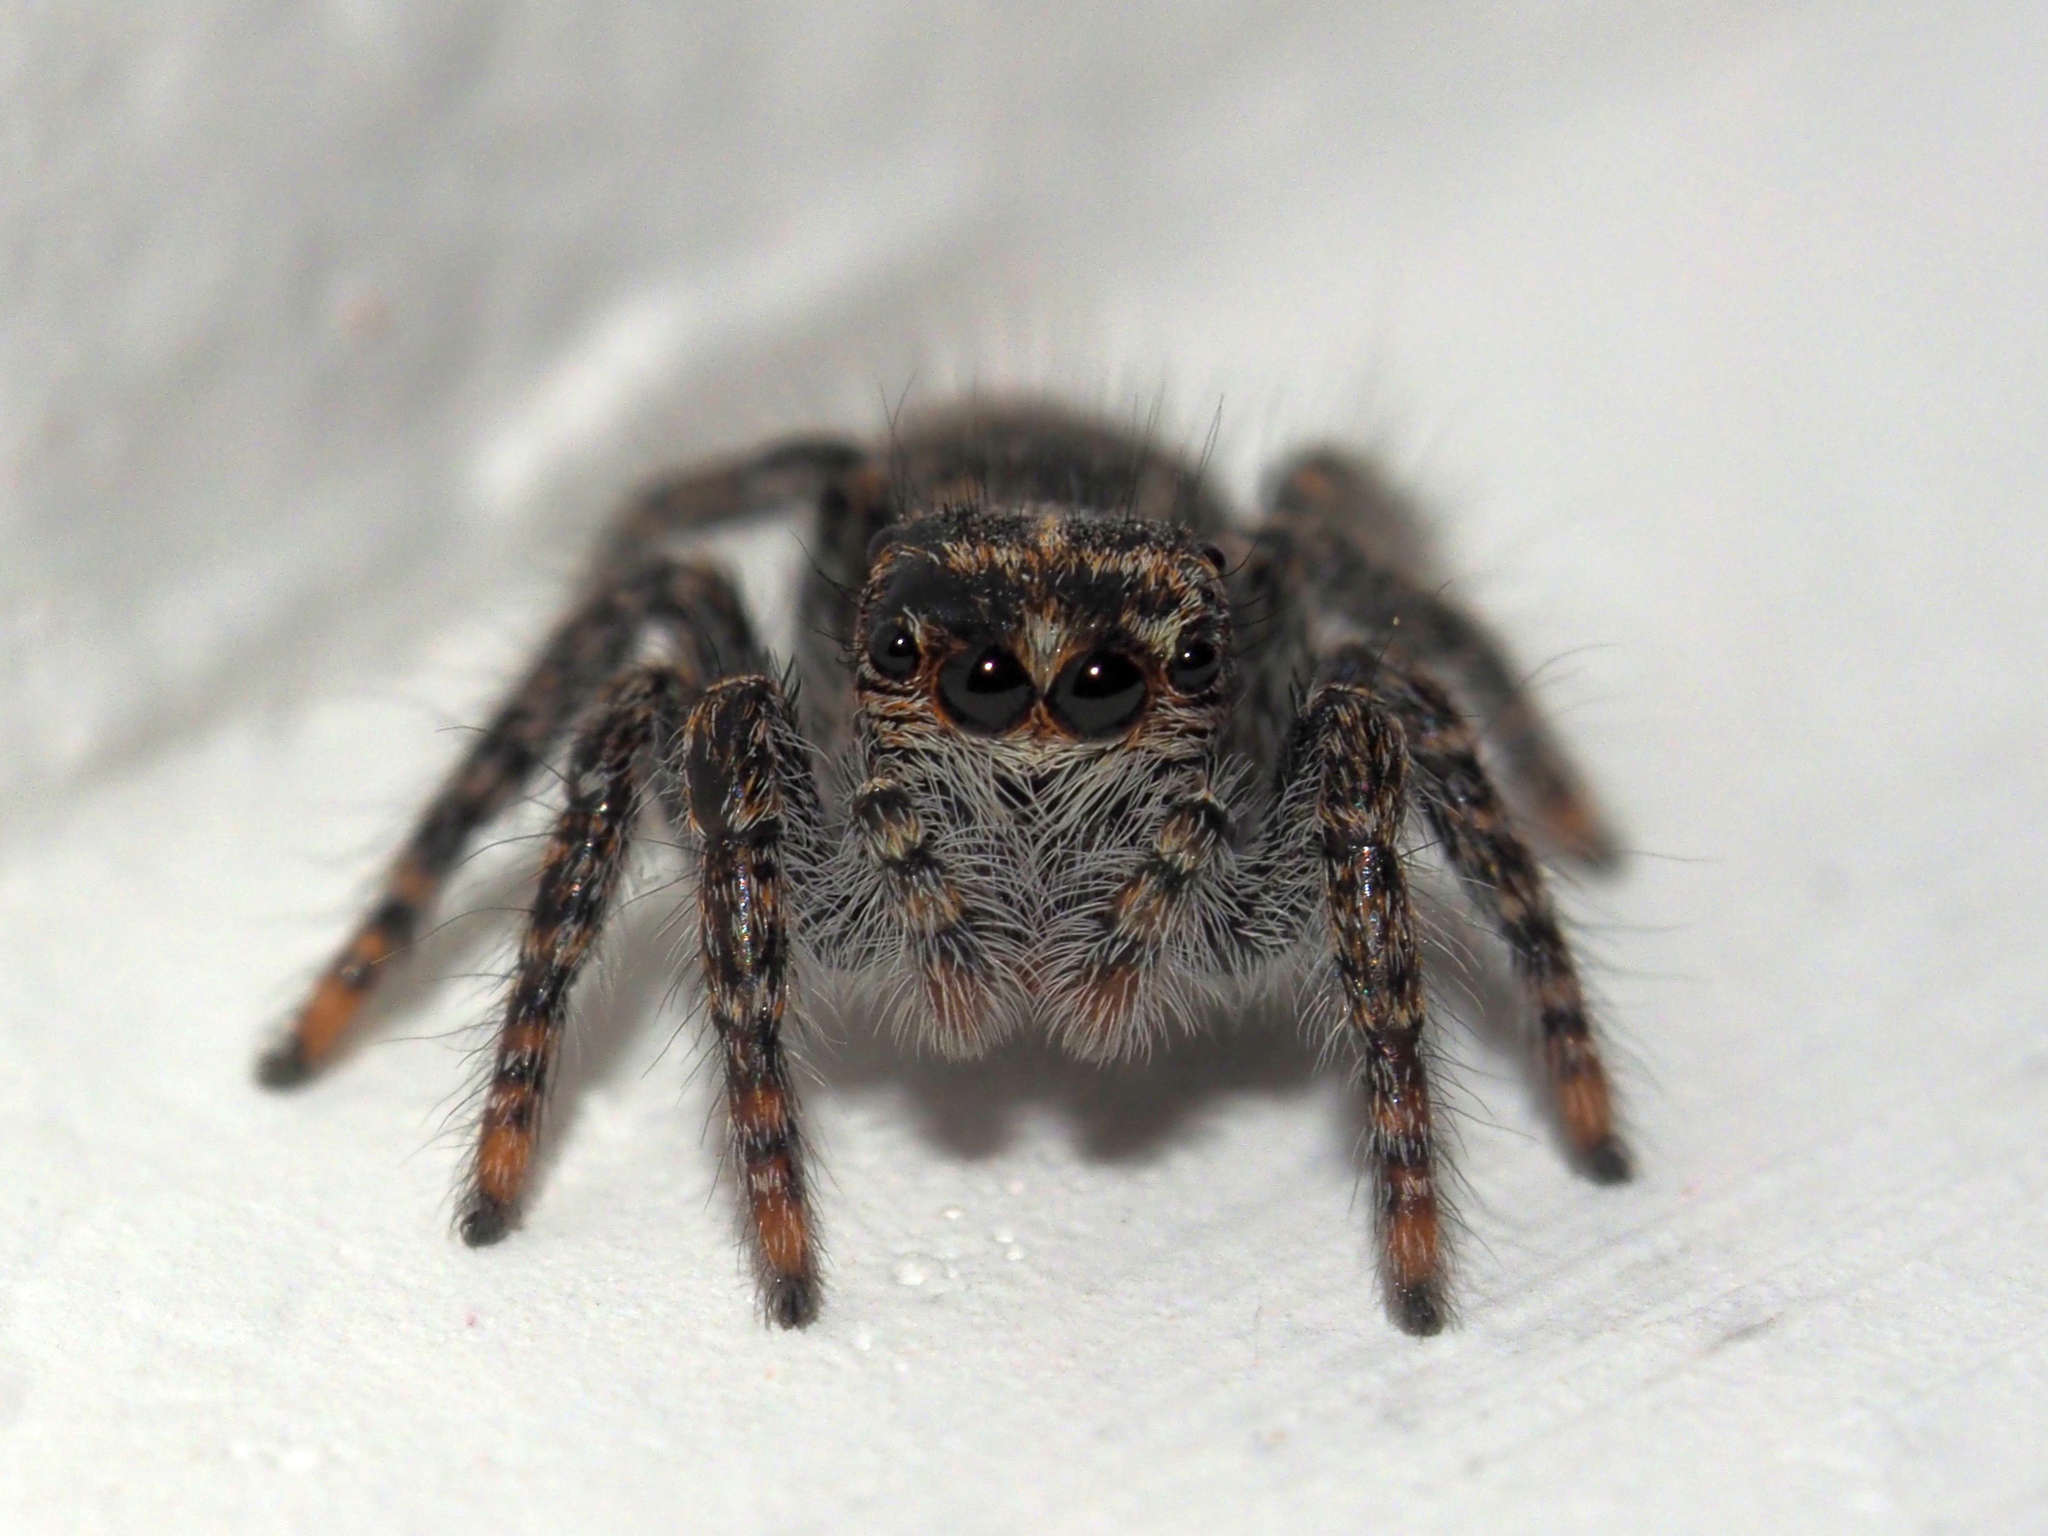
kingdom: Animalia
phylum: Arthropoda
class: Arachnida
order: Araneae
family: Salticidae
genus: Philaeus
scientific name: Philaeus chrysops
